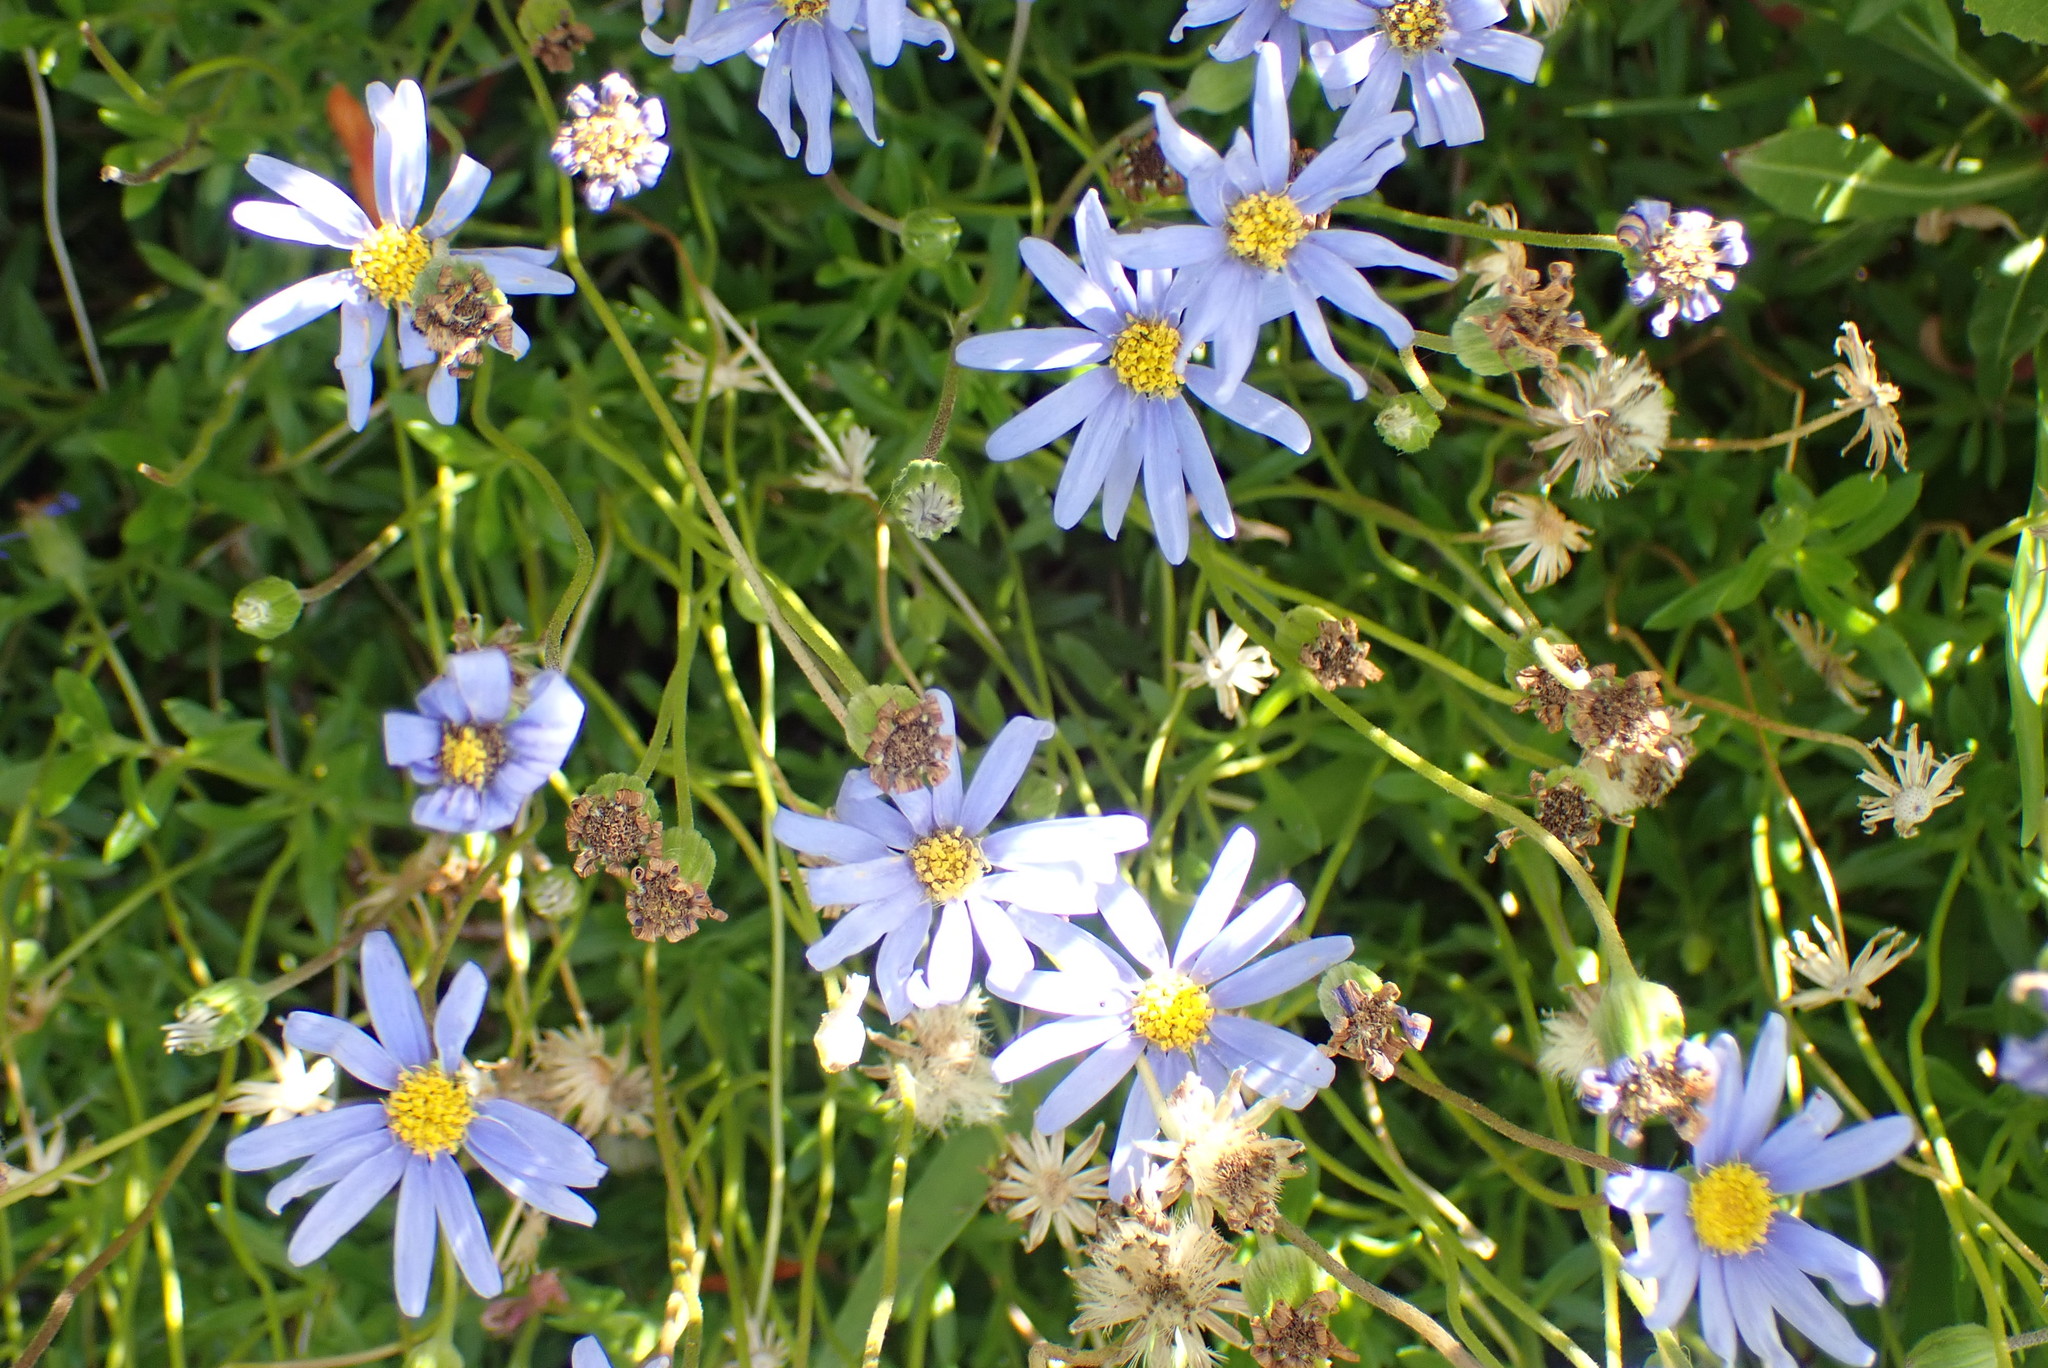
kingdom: Plantae
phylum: Tracheophyta
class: Magnoliopsida
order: Asterales
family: Asteraceae
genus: Felicia
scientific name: Felicia amelloides
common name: Blue marguerite
